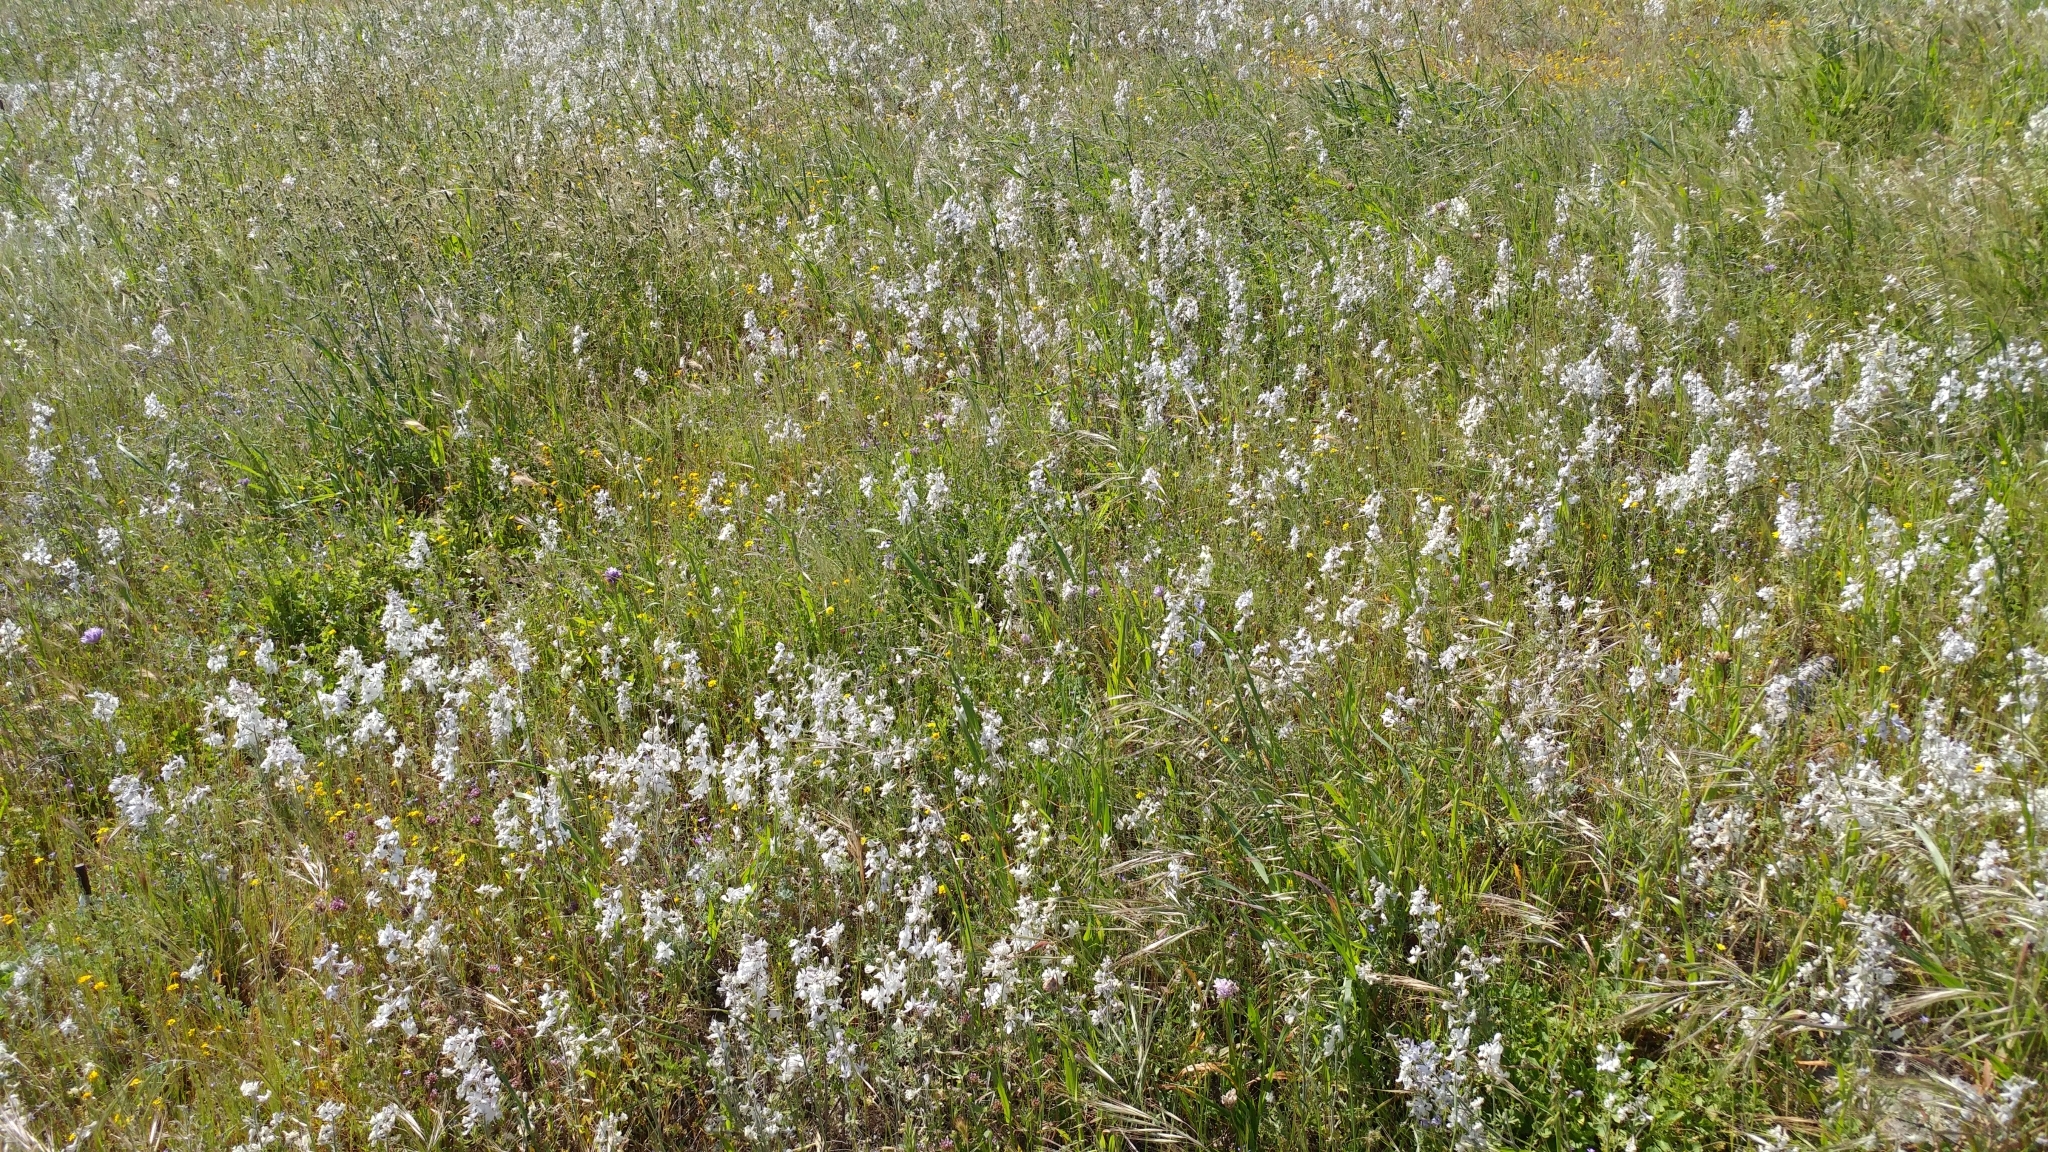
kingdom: Plantae
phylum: Tracheophyta
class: Magnoliopsida
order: Ranunculales
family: Ranunculaceae
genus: Delphinium
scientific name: Delphinium variegatum
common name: Royal larkspur
